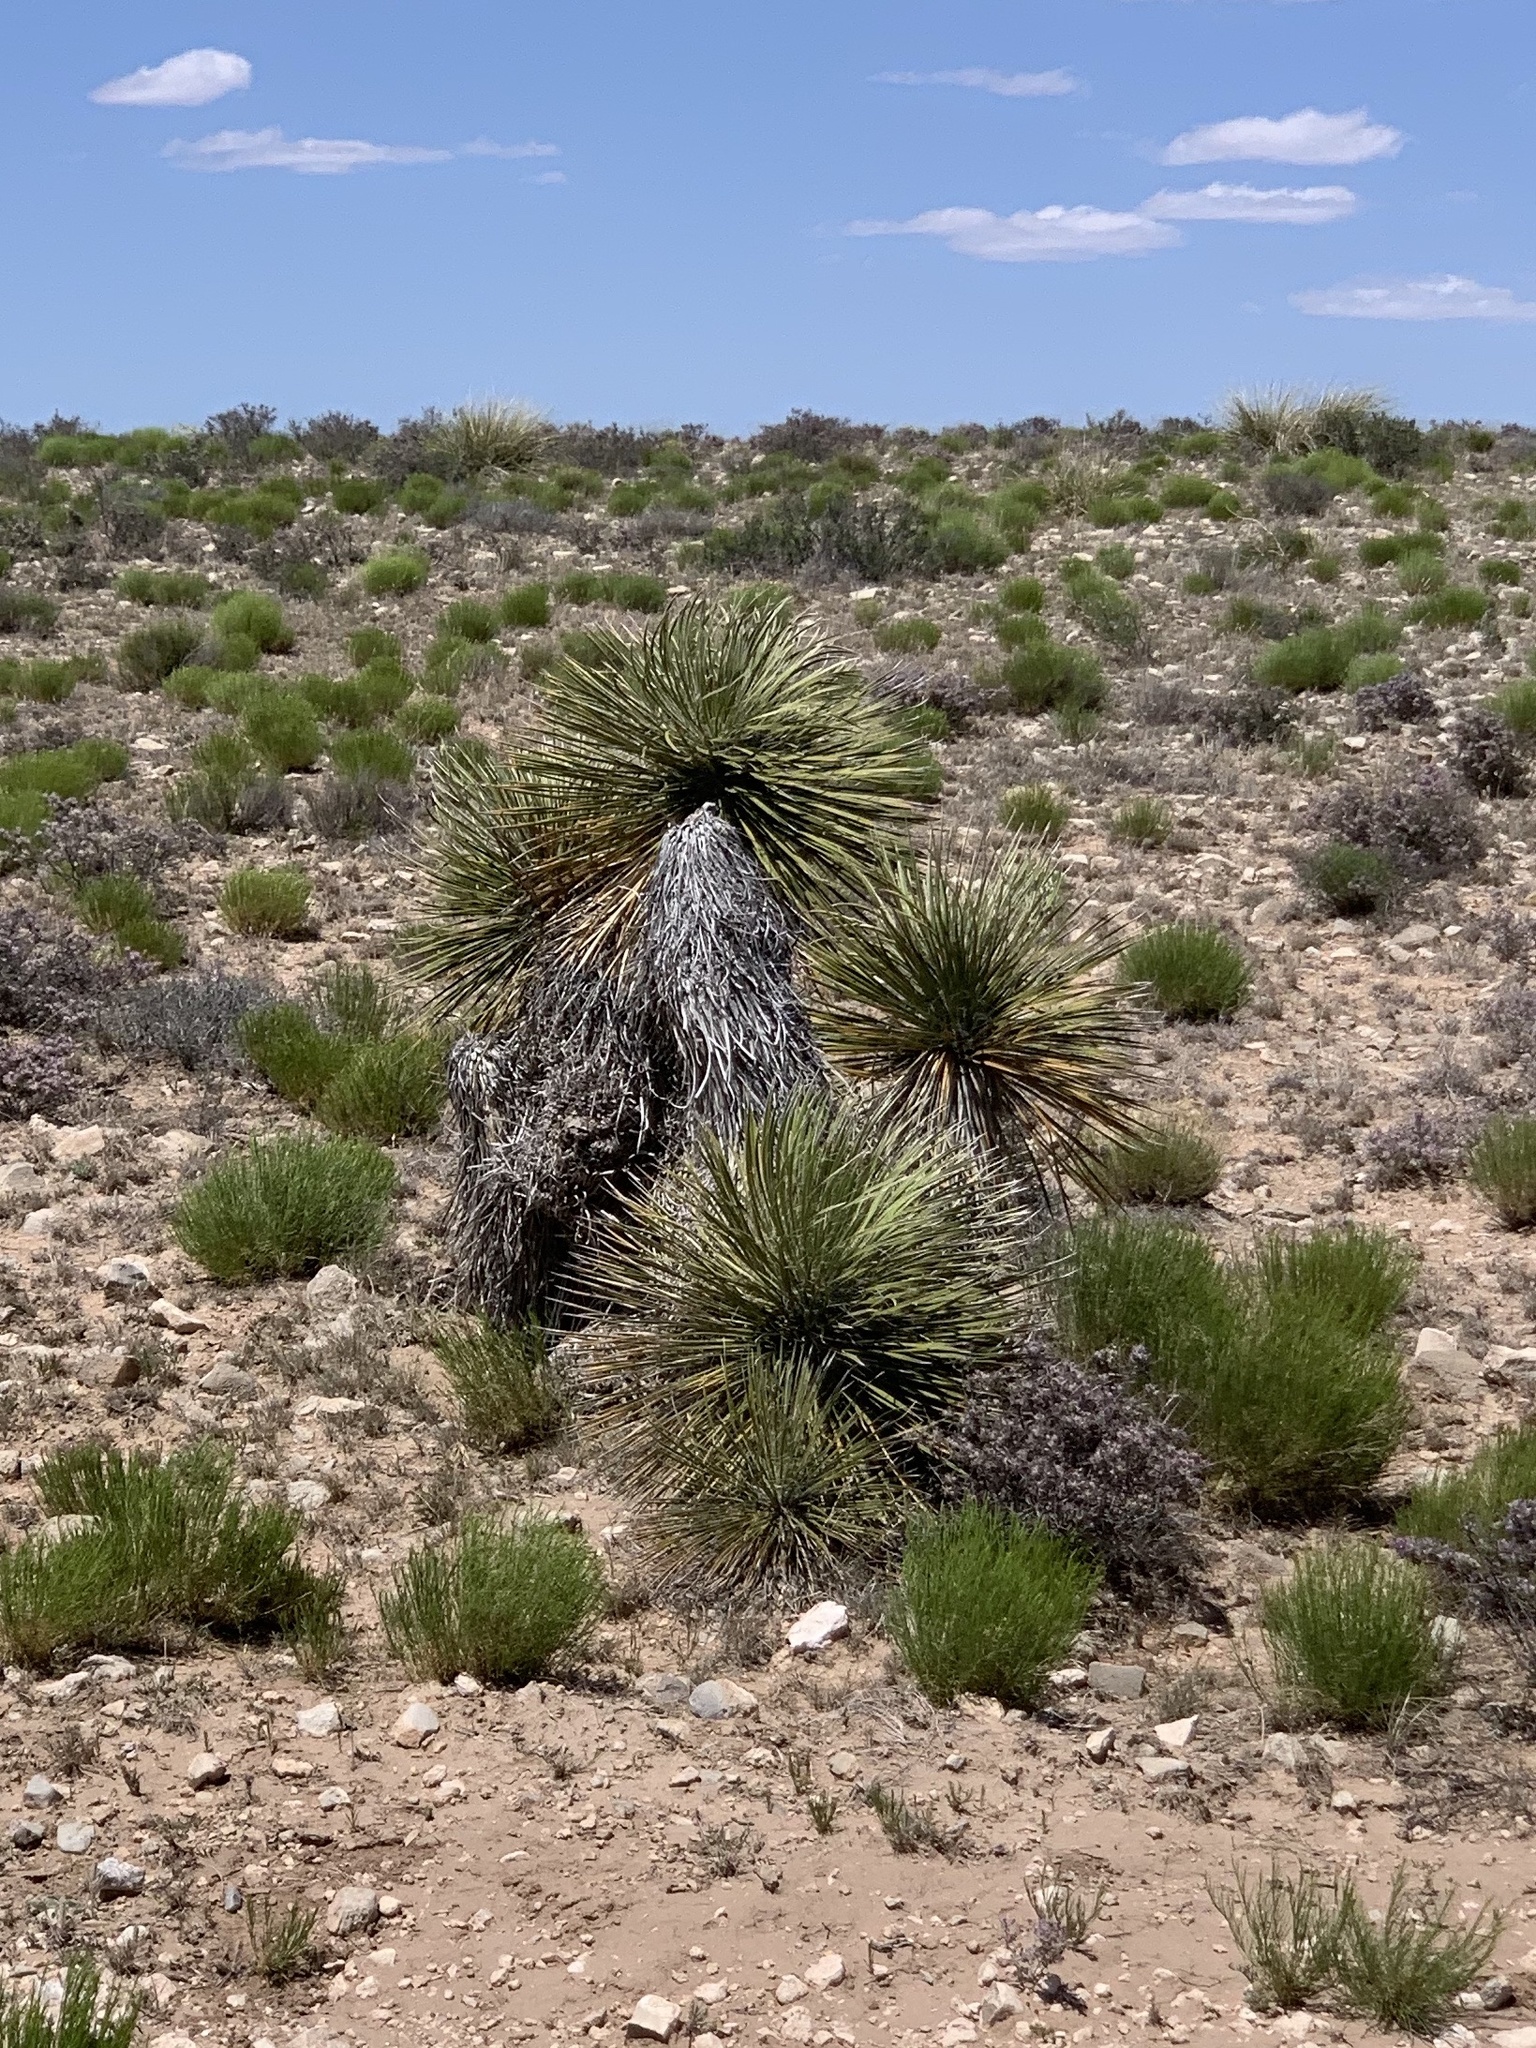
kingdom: Plantae
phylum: Tracheophyta
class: Liliopsida
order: Asparagales
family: Asparagaceae
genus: Yucca
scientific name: Yucca elata
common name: Palmella
